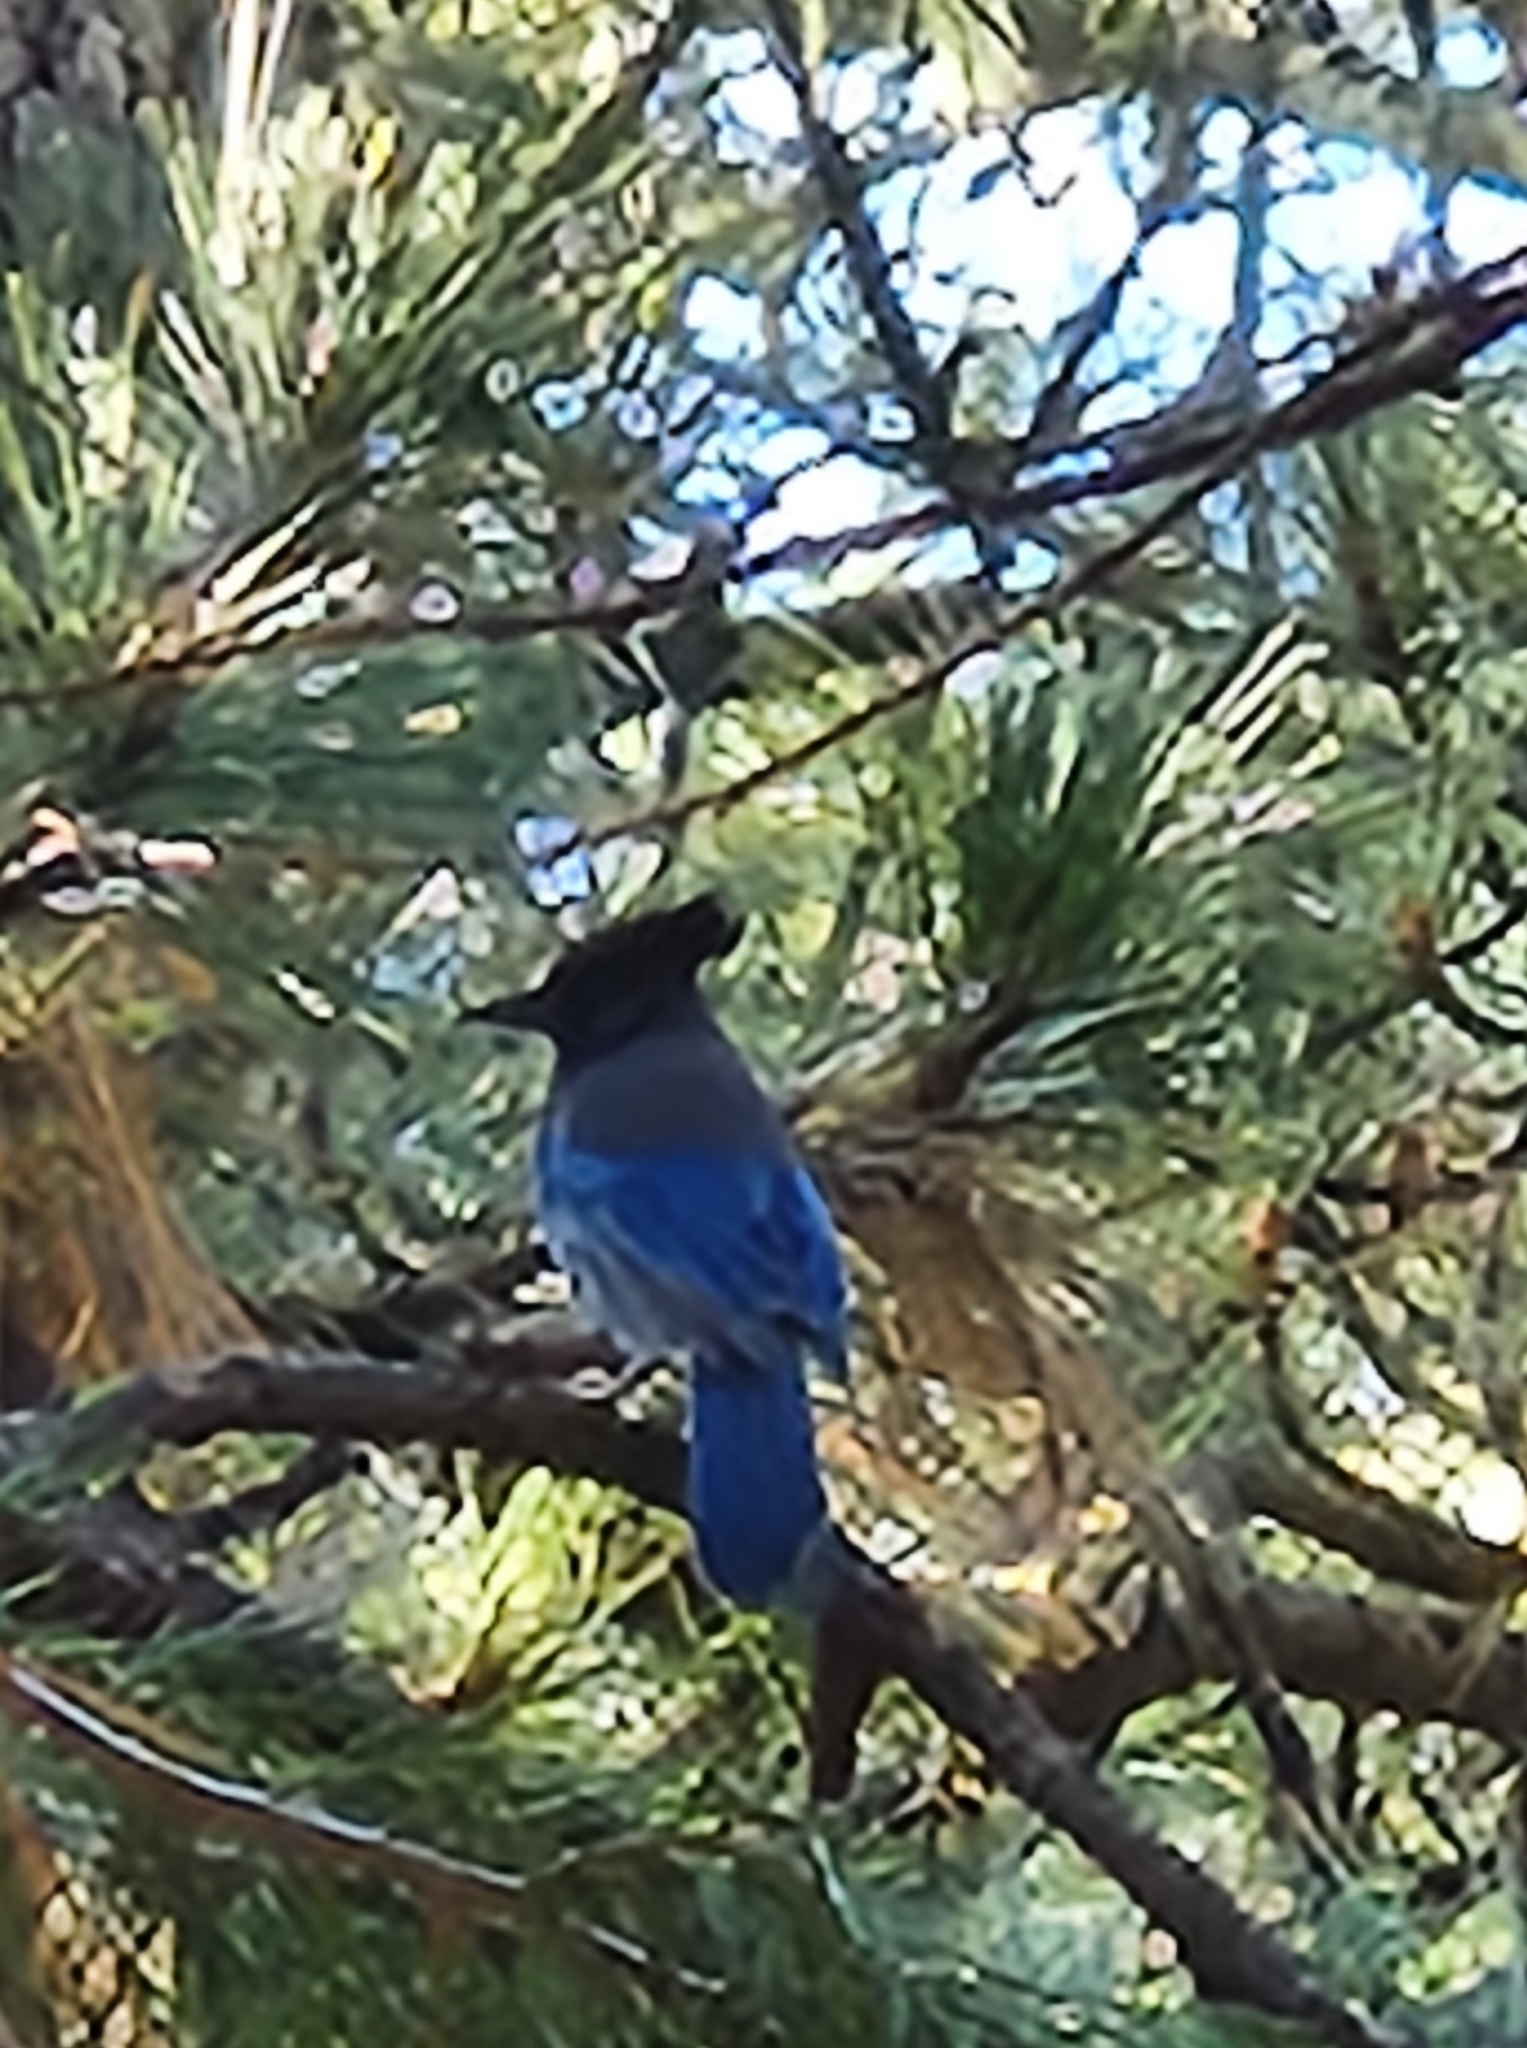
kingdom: Animalia
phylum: Chordata
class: Aves
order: Passeriformes
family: Corvidae
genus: Cyanocitta
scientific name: Cyanocitta stelleri
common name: Steller's jay
